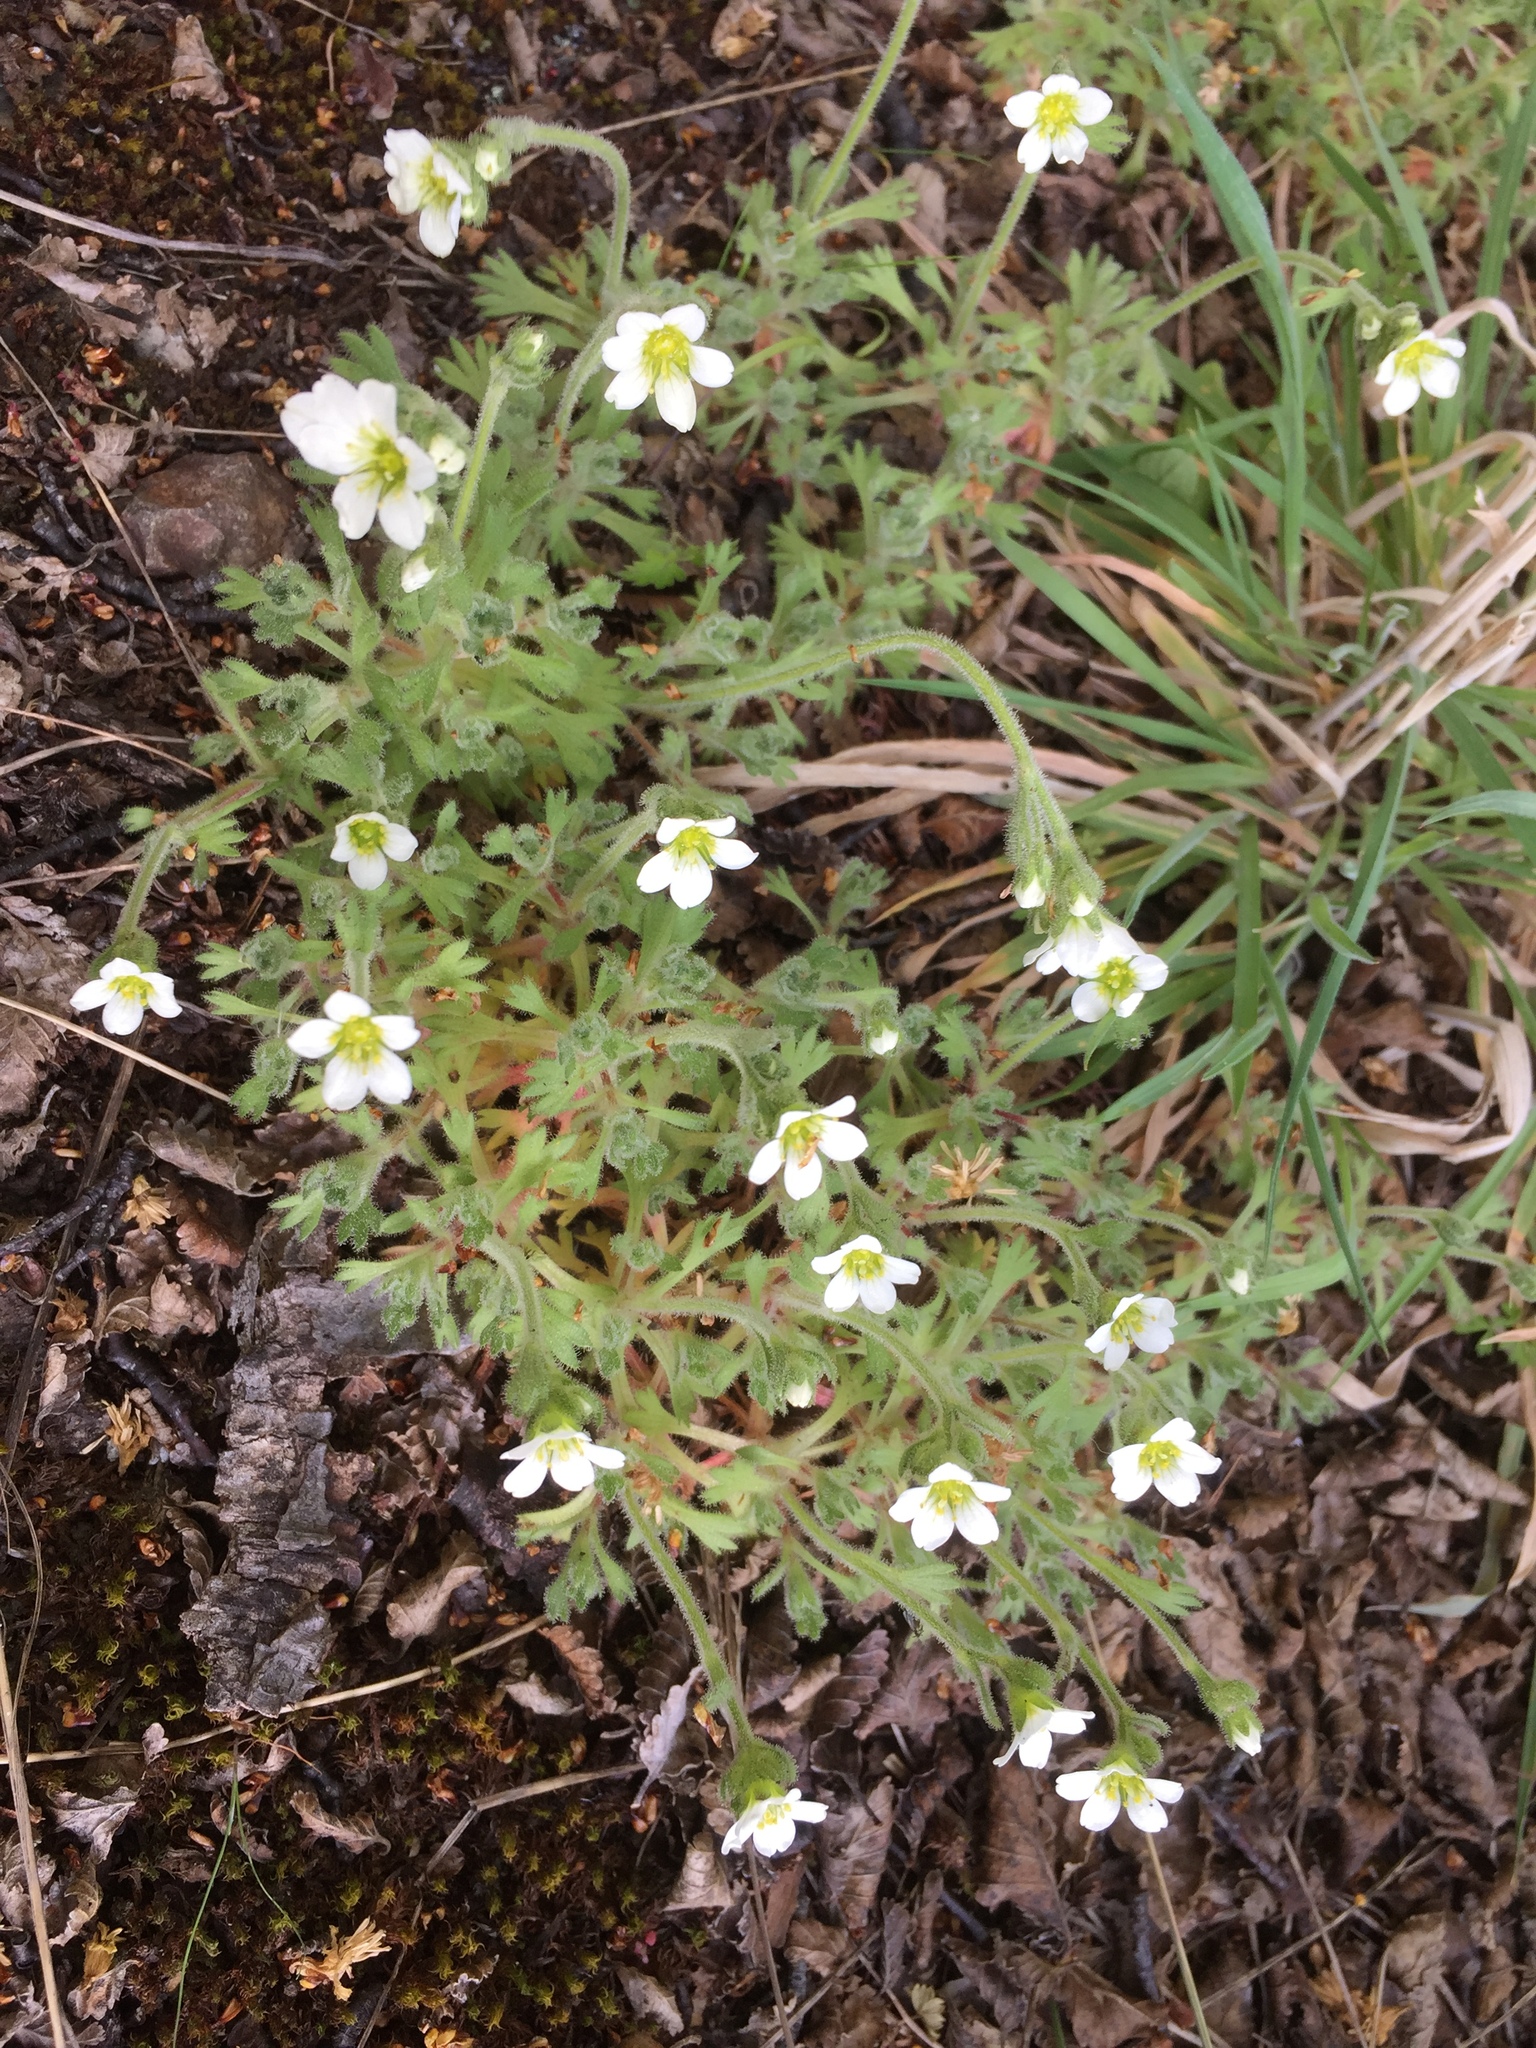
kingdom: Plantae
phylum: Tracheophyta
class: Magnoliopsida
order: Saxifragales
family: Saxifragaceae
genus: Saxifraga
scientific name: Saxifraga magellanica
